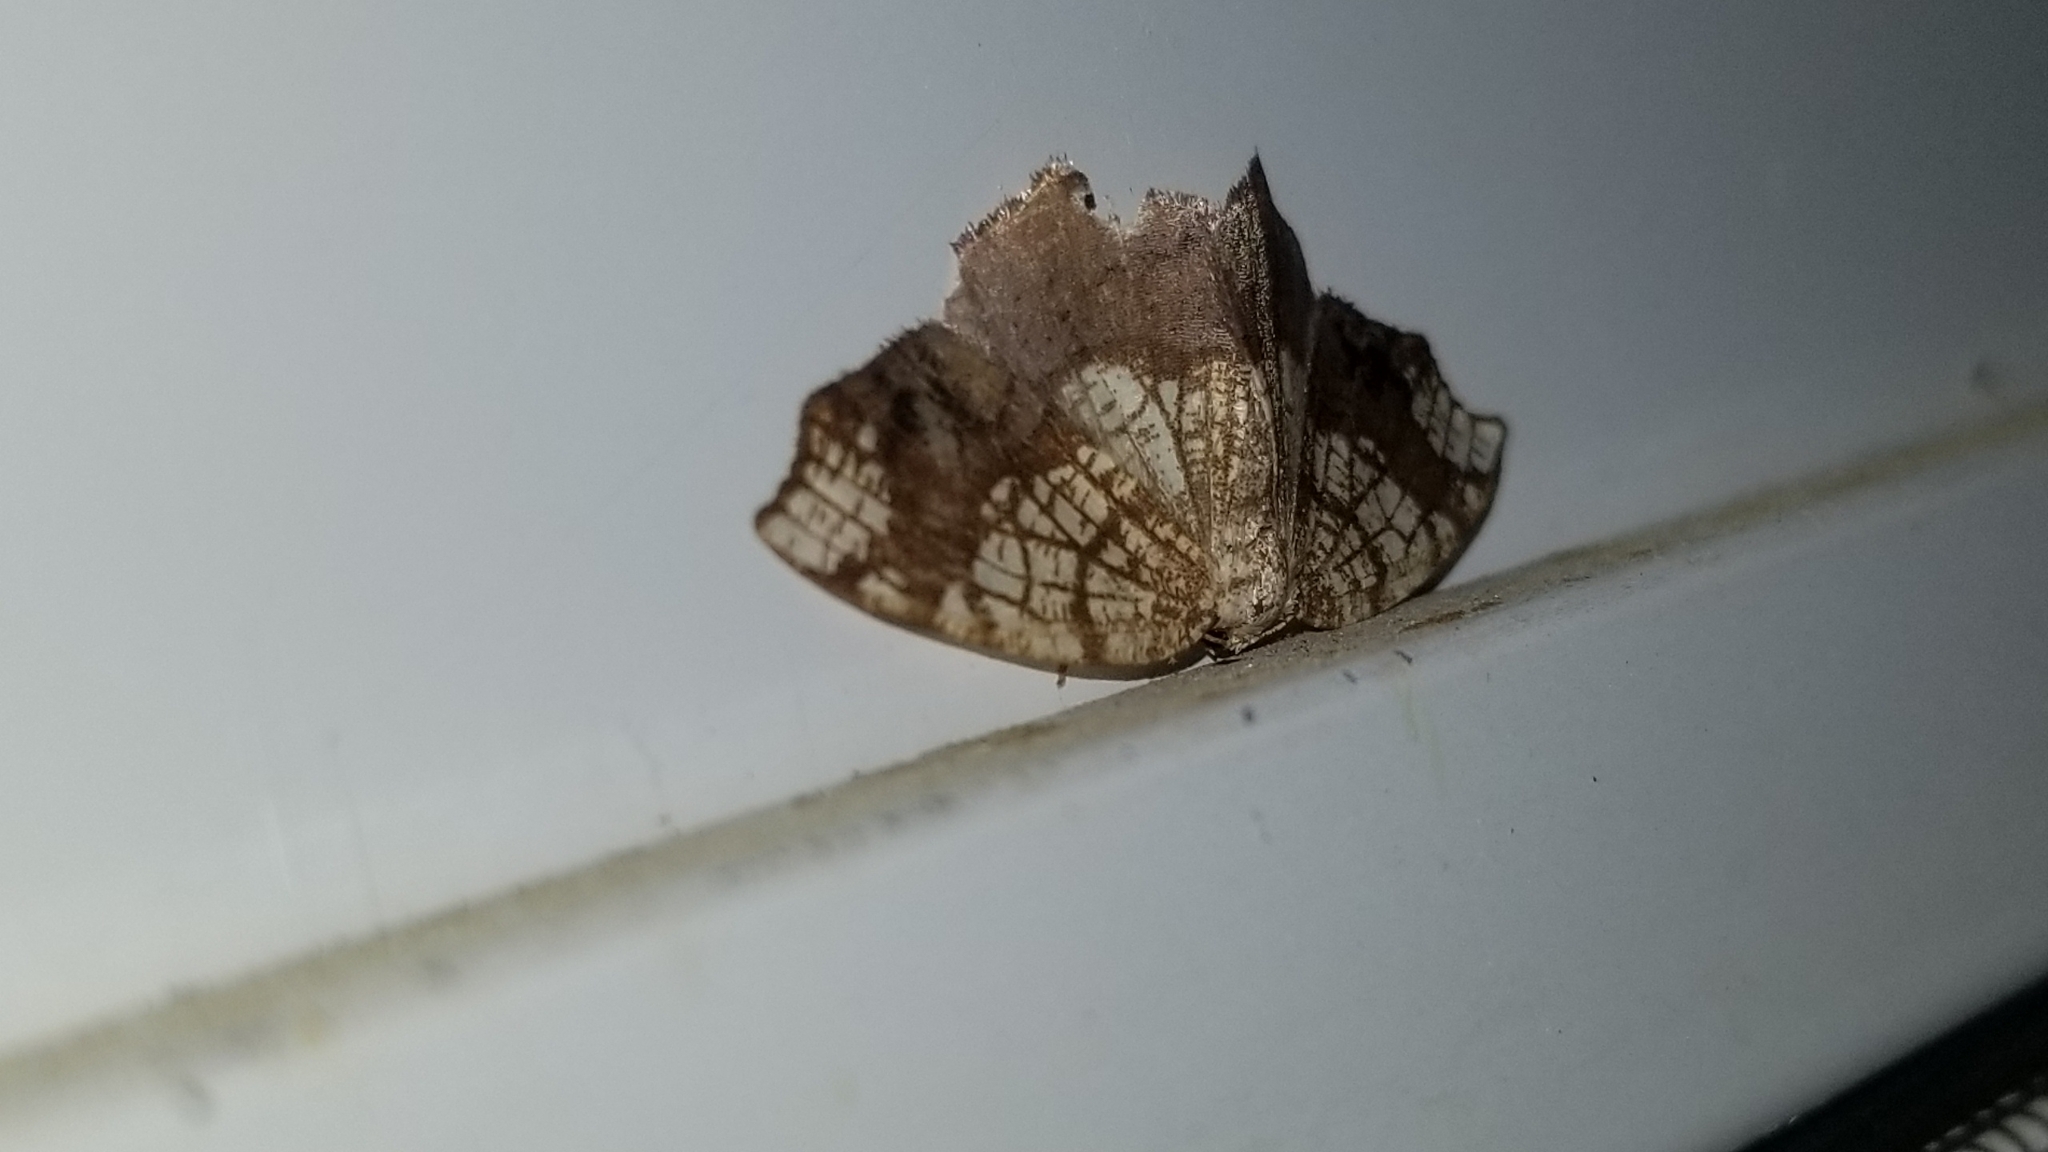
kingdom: Animalia
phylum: Arthropoda
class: Insecta
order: Lepidoptera
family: Geometridae
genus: Nematocampa
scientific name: Nematocampa resistaria
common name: Horned spanworm moth
